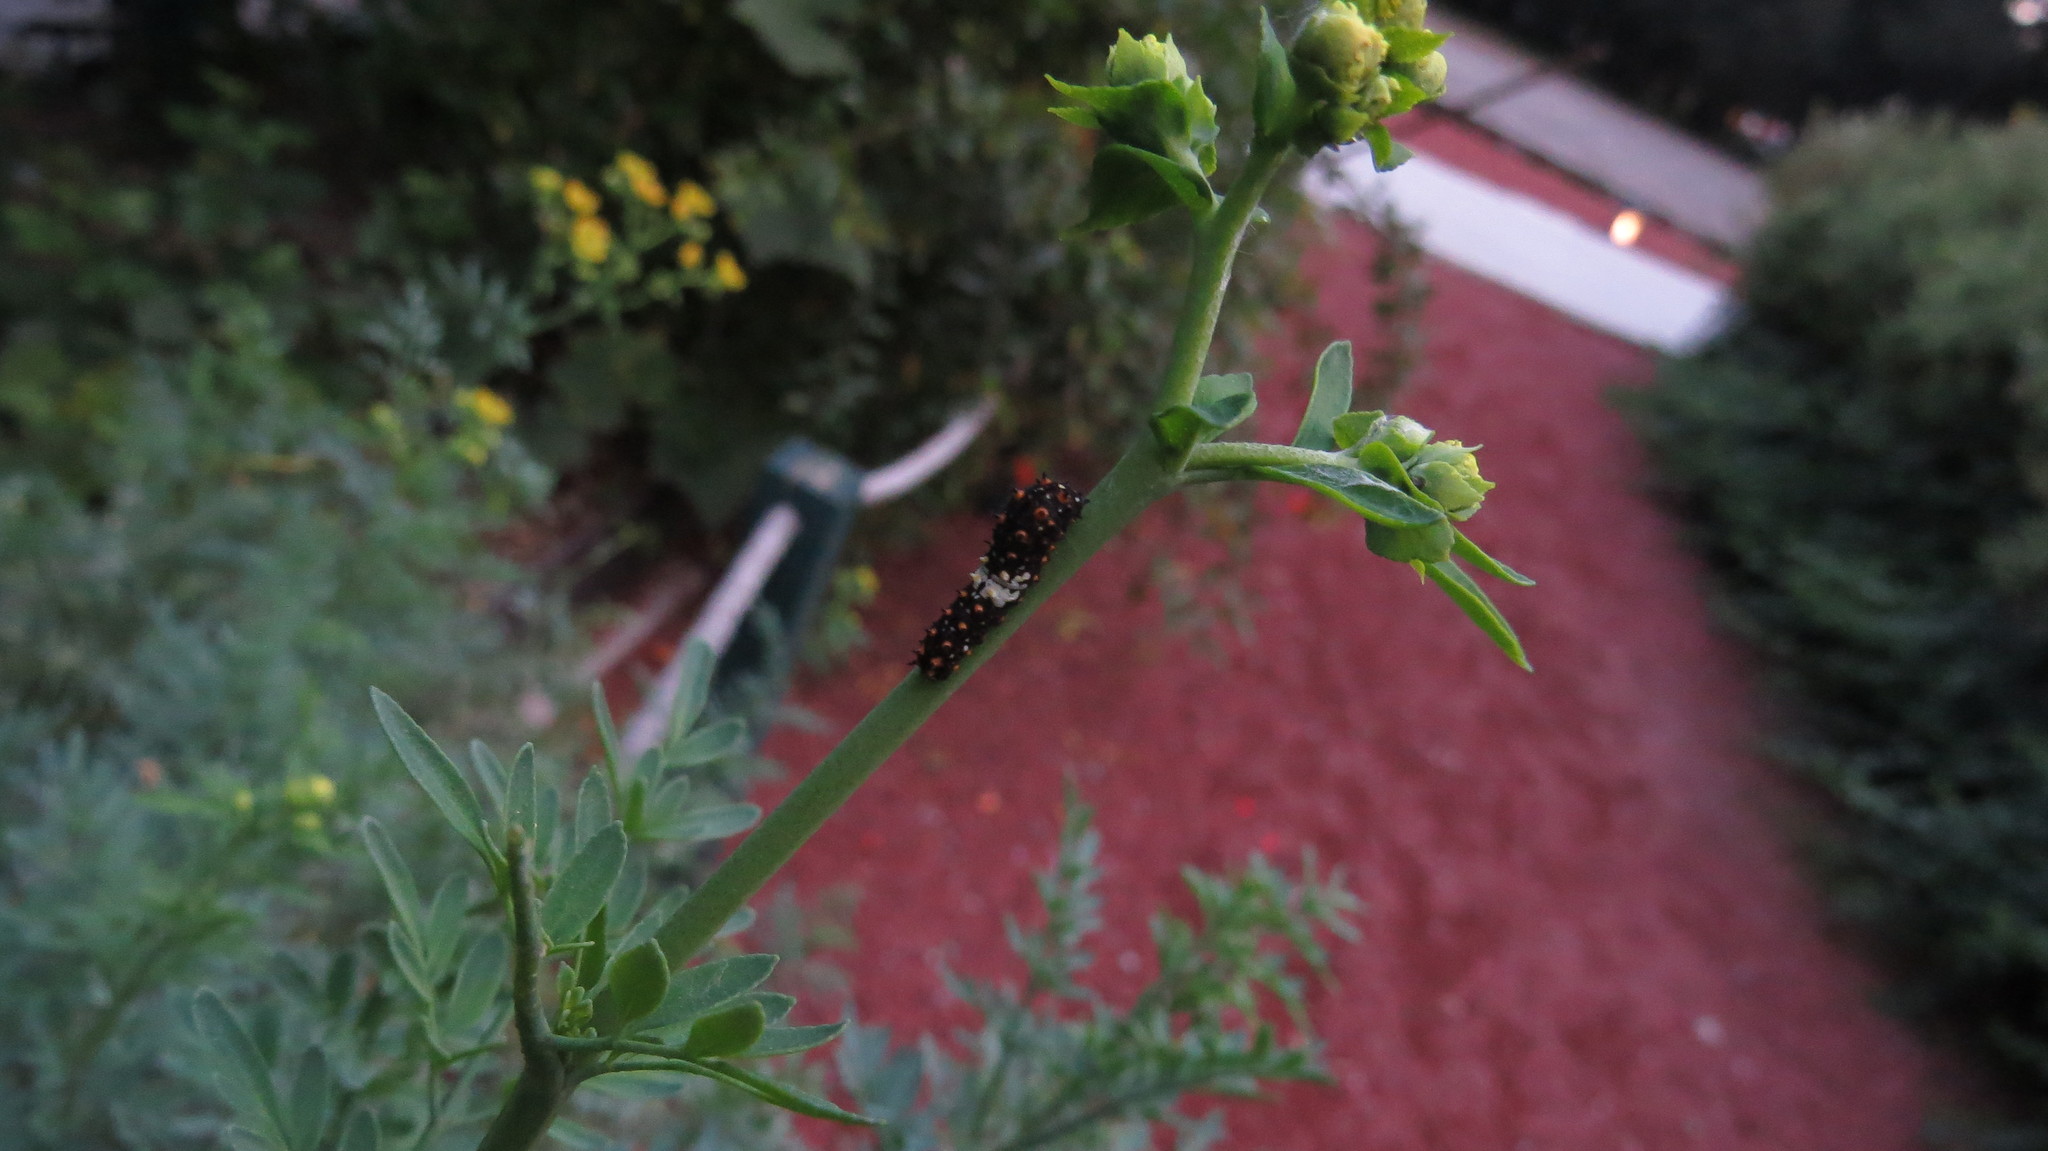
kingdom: Animalia
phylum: Arthropoda
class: Insecta
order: Lepidoptera
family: Papilionidae
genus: Papilio
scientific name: Papilio polyxenes
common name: Black swallowtail
